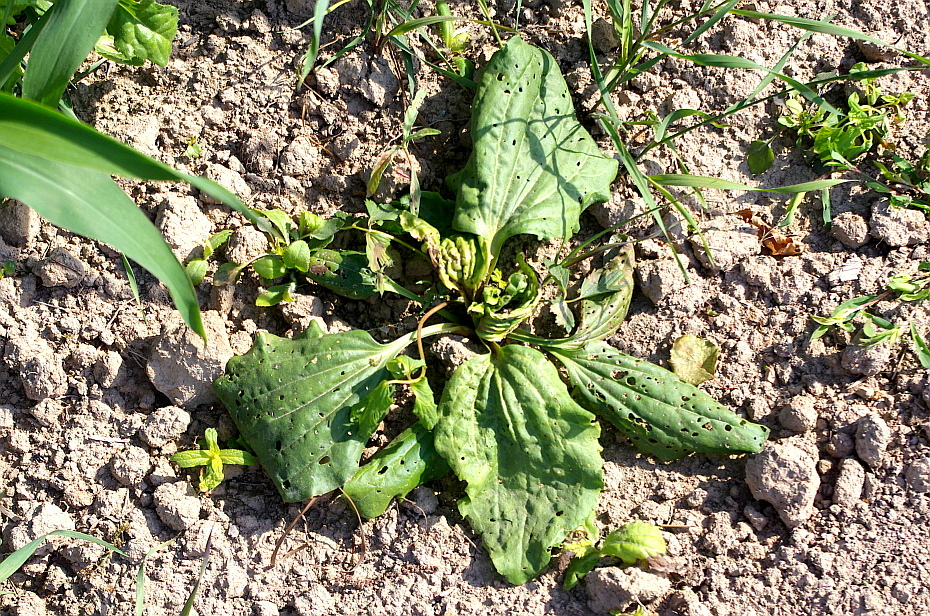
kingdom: Plantae
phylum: Tracheophyta
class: Magnoliopsida
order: Lamiales
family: Plantaginaceae
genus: Plantago
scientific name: Plantago major
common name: Common plantain
